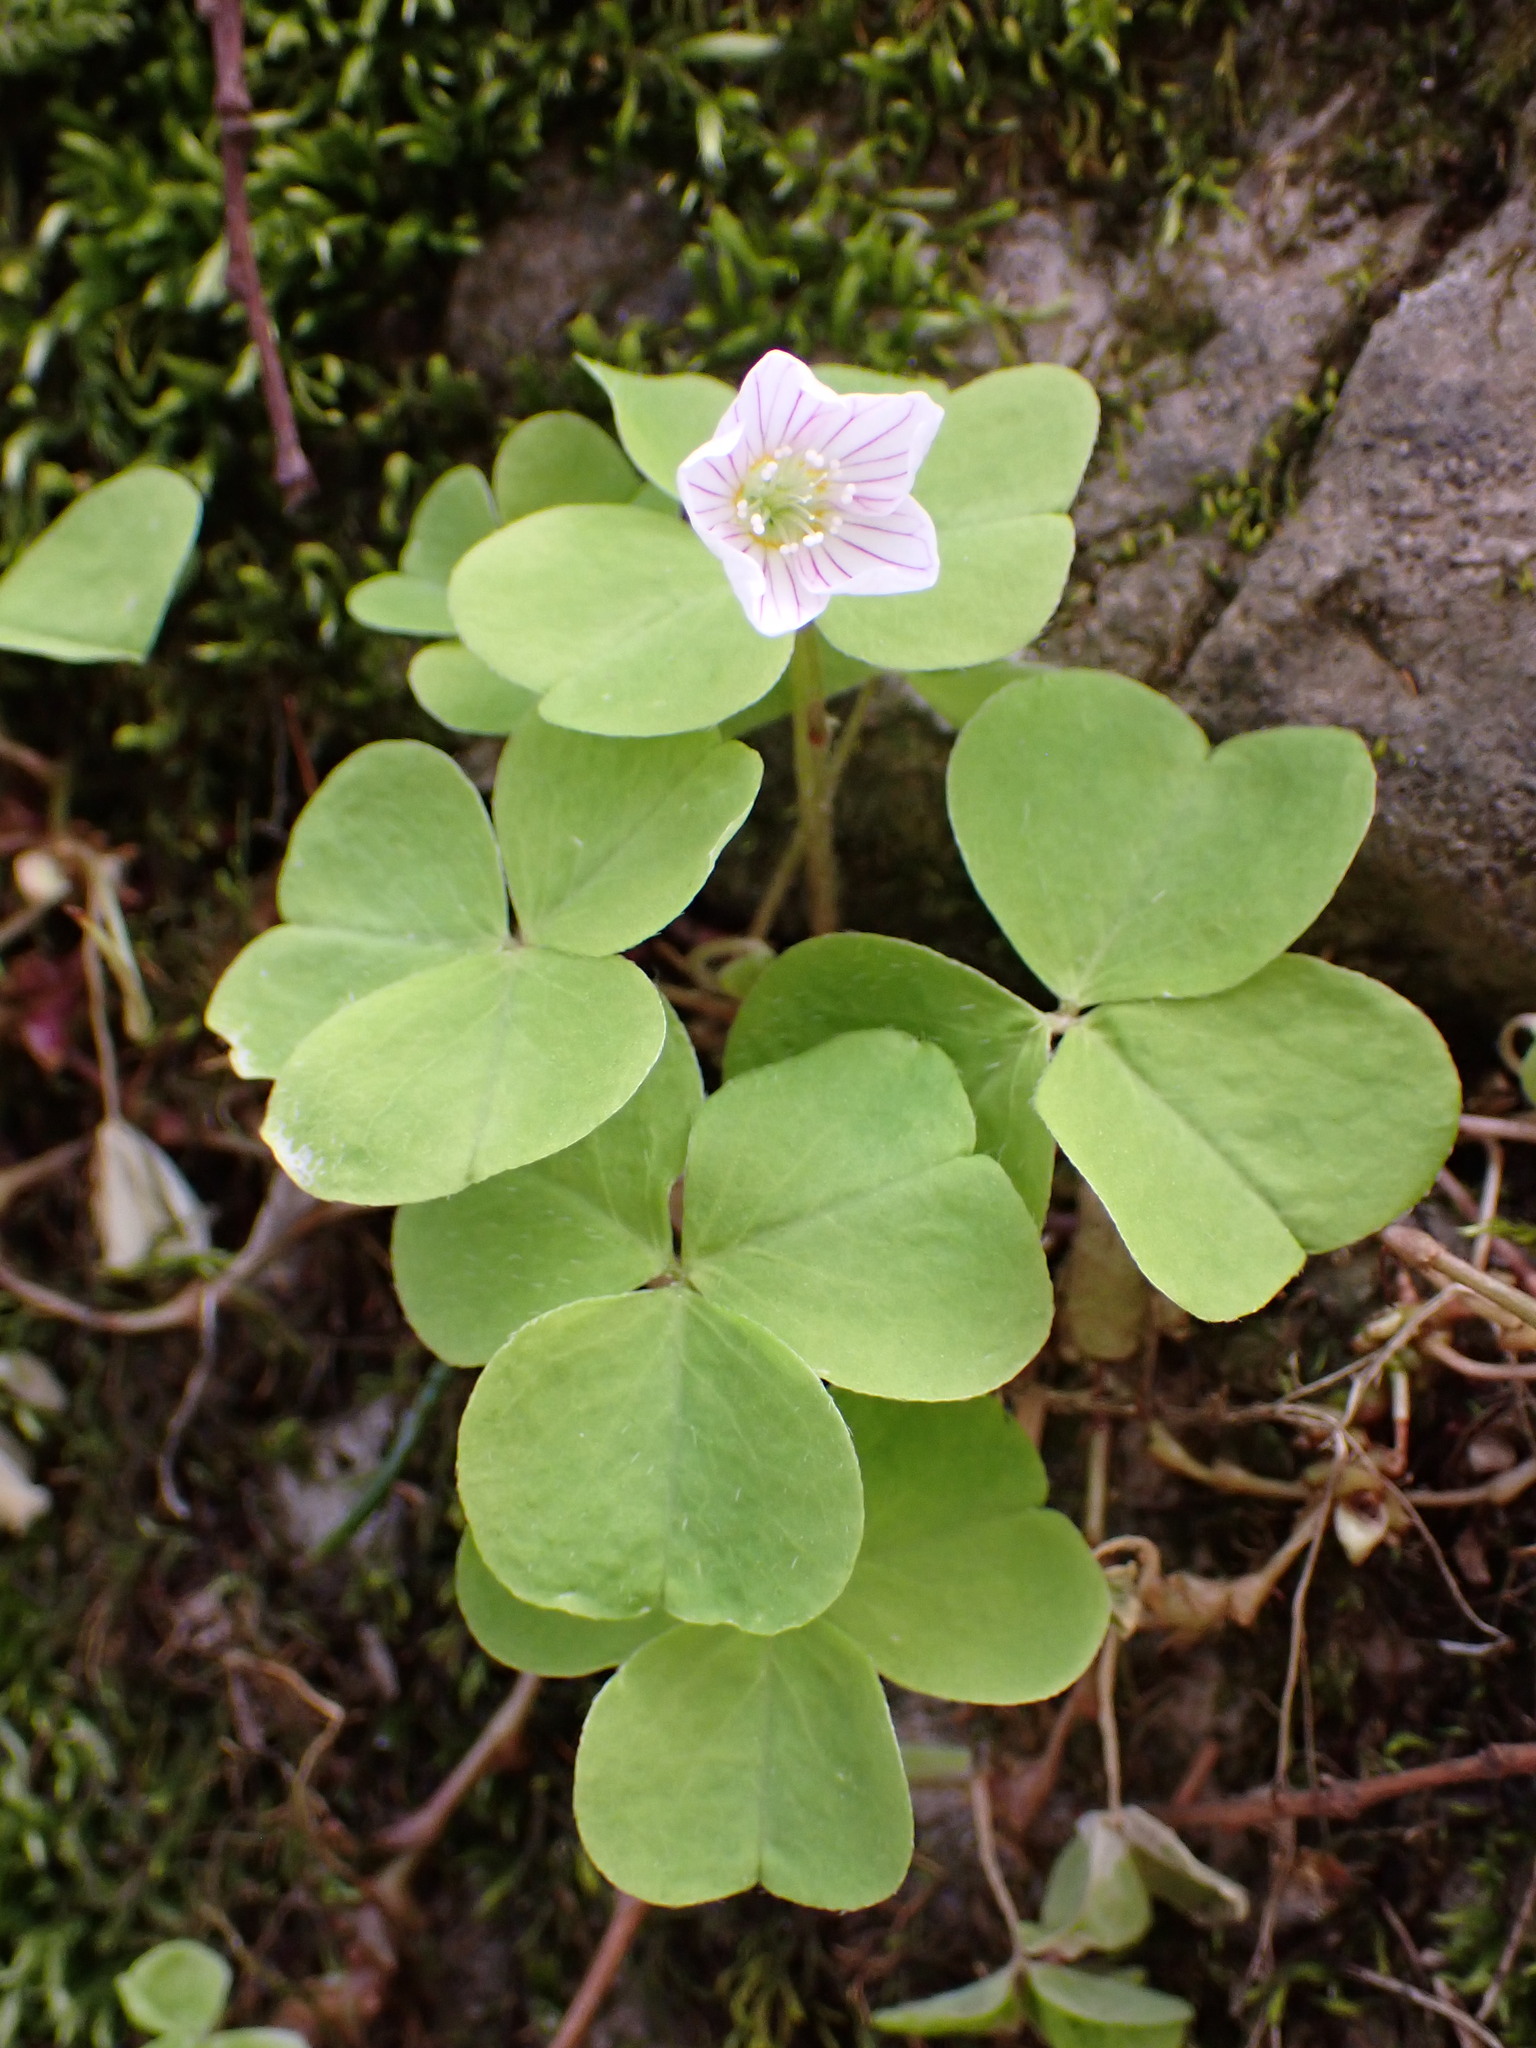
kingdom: Plantae
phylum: Tracheophyta
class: Magnoliopsida
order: Oxalidales
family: Oxalidaceae
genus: Oxalis
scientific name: Oxalis acetosella
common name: Wood-sorrel
